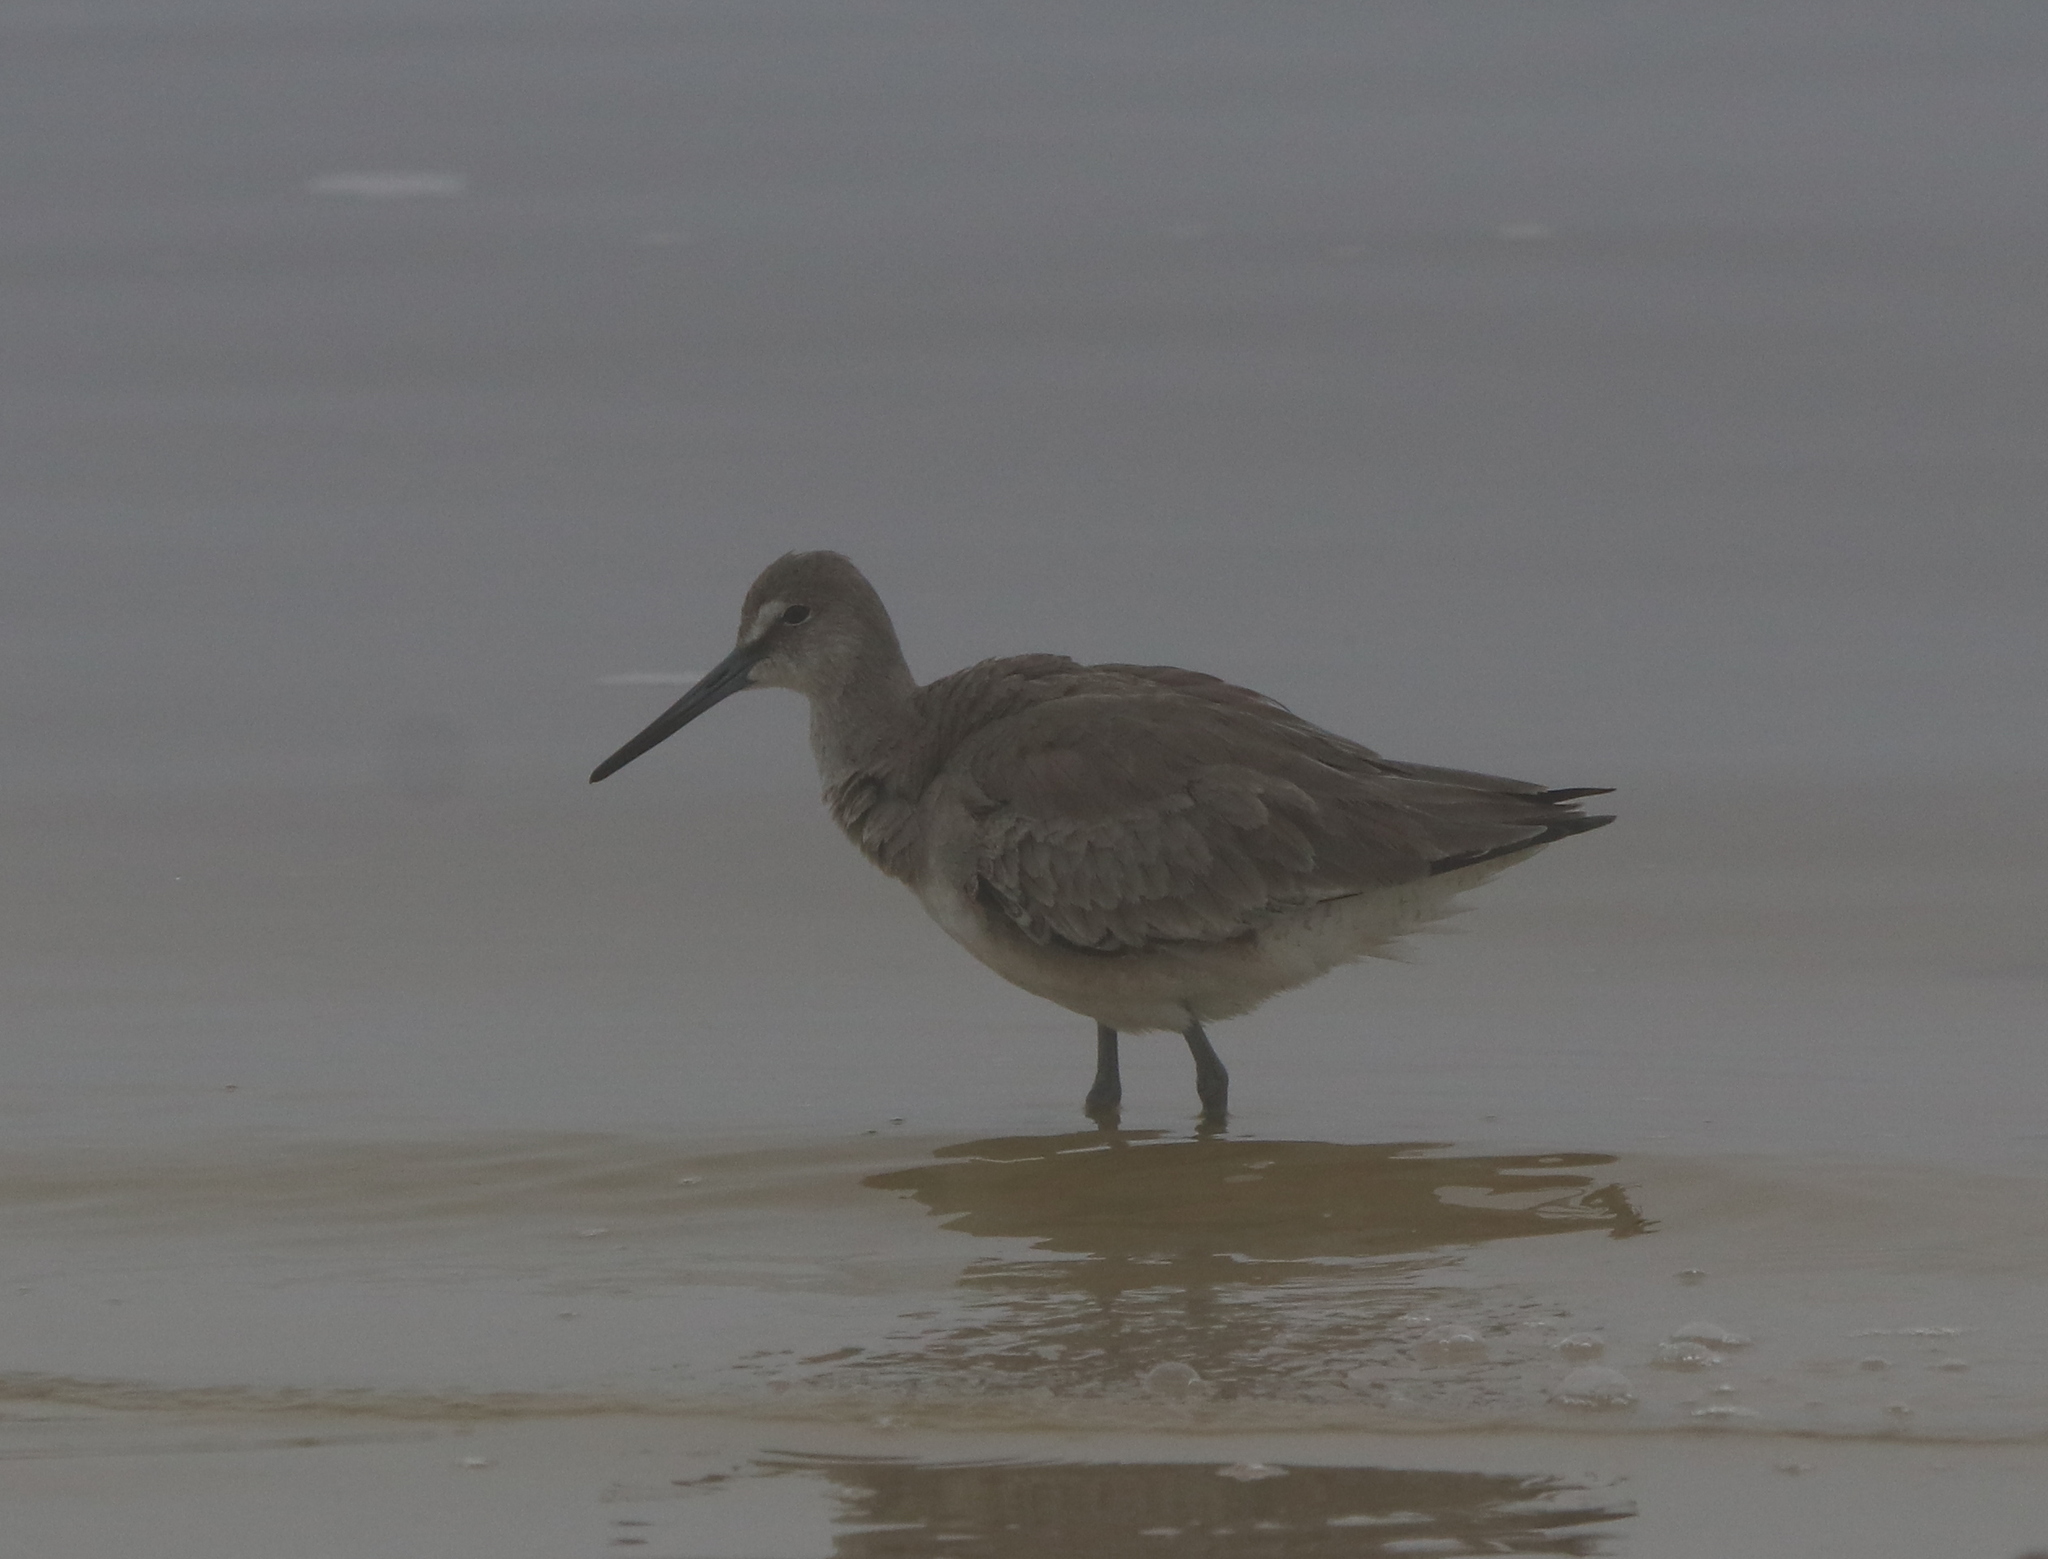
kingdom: Animalia
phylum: Chordata
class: Aves
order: Charadriiformes
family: Scolopacidae
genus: Tringa
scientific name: Tringa semipalmata
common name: Willet
